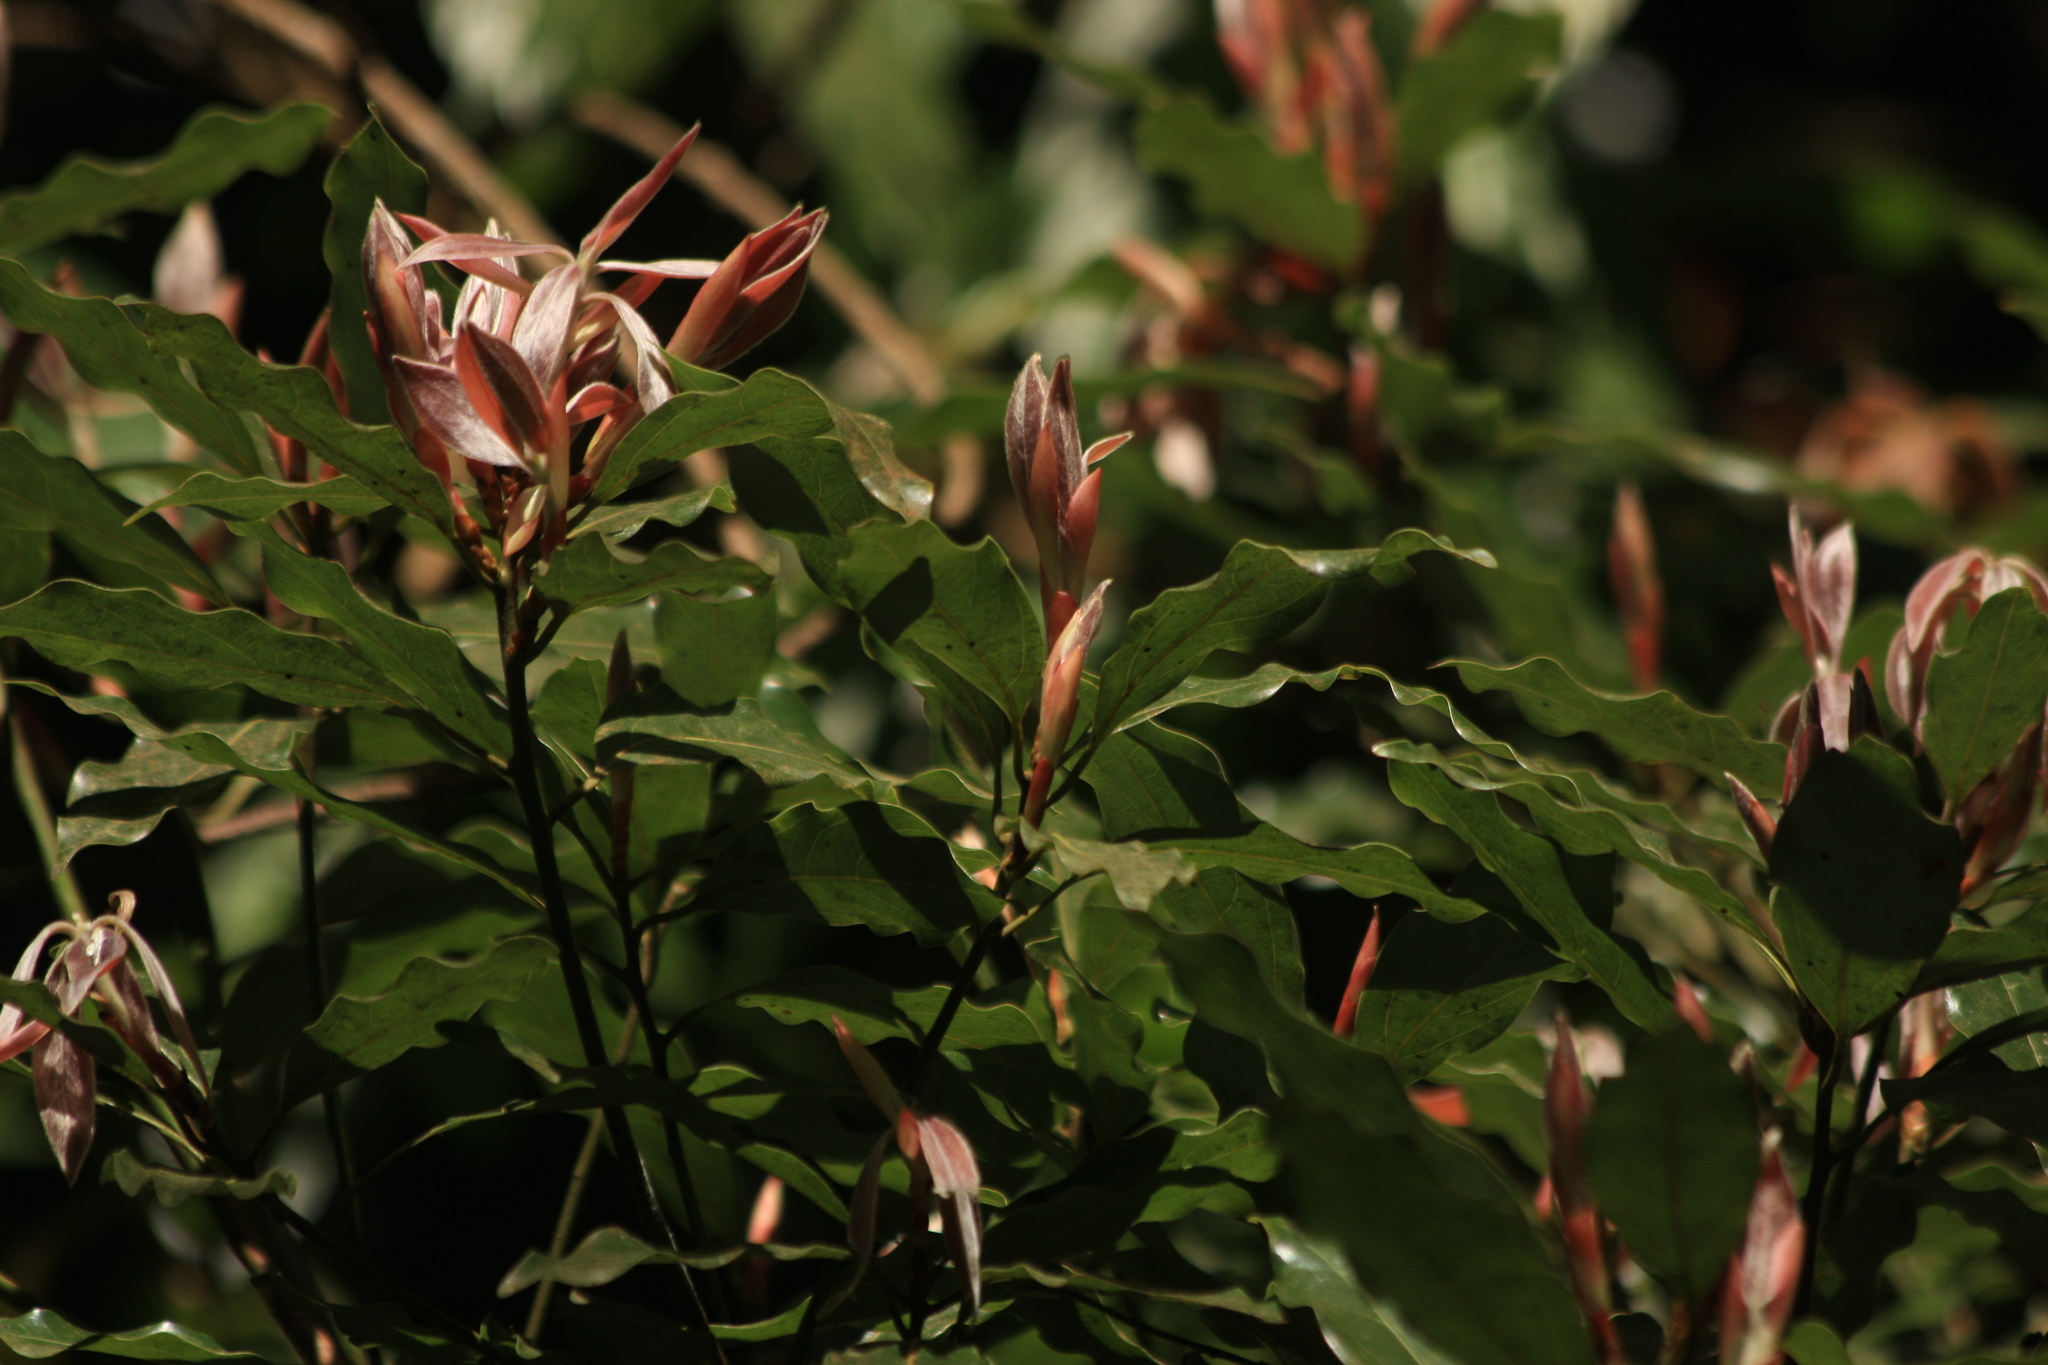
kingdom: Plantae
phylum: Tracheophyta
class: Magnoliopsida
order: Laurales
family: Lauraceae
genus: Neolitsea
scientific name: Neolitsea foliosa
